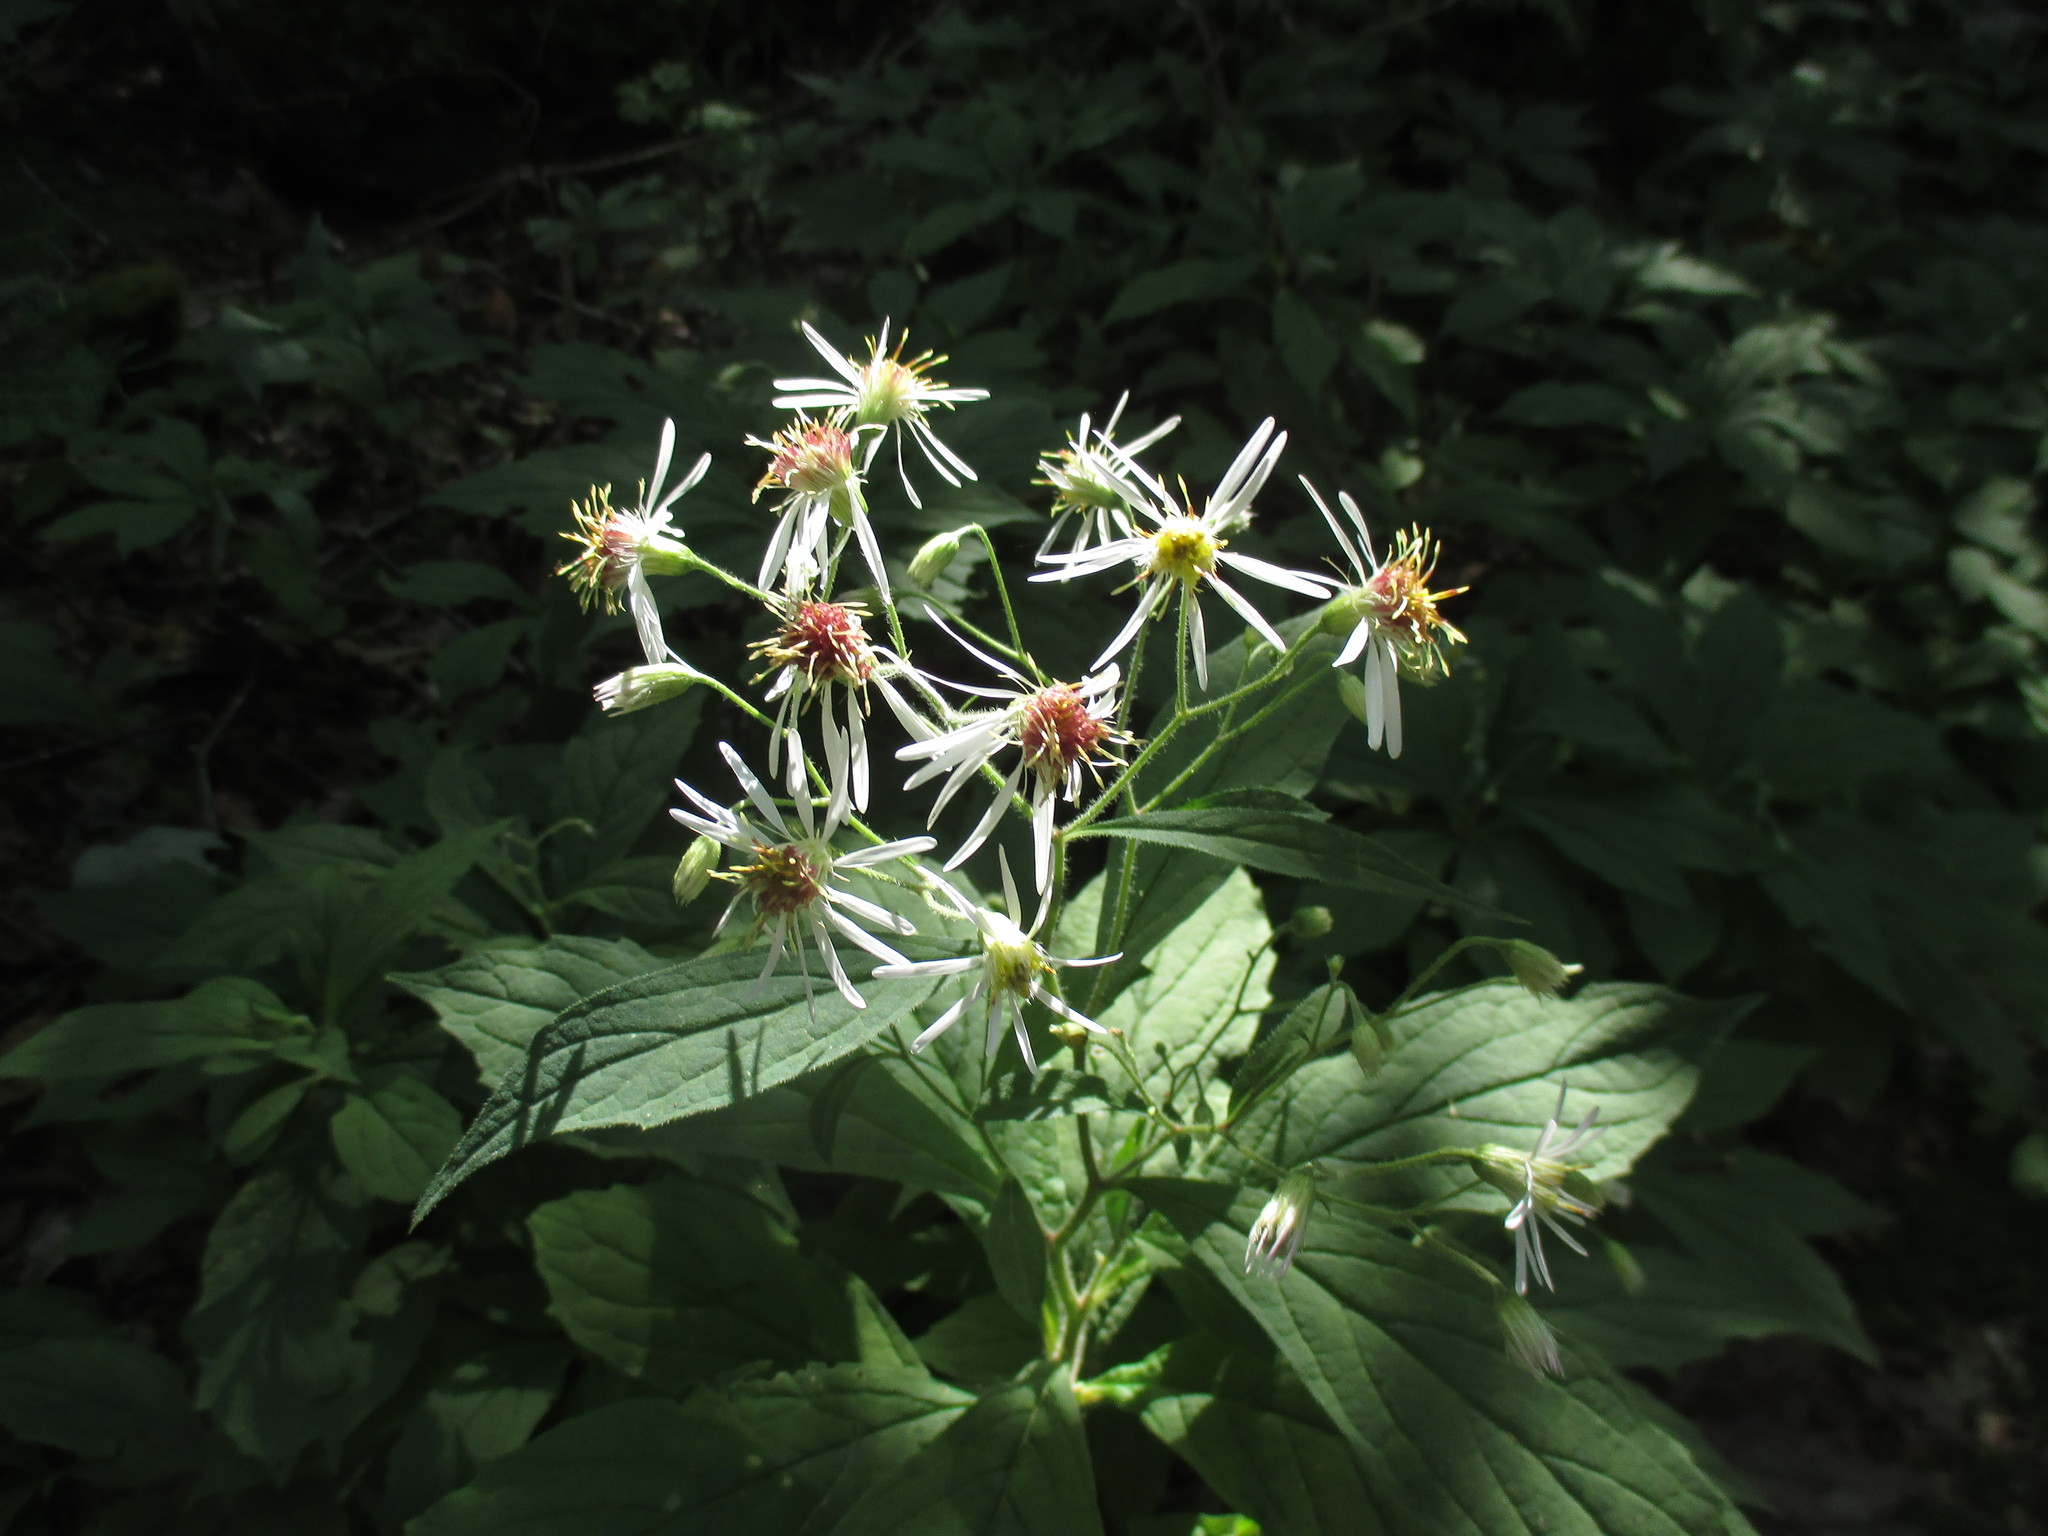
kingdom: Plantae
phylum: Tracheophyta
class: Magnoliopsida
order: Asterales
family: Asteraceae
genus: Oclemena
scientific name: Oclemena acuminata
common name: Mountain aster
